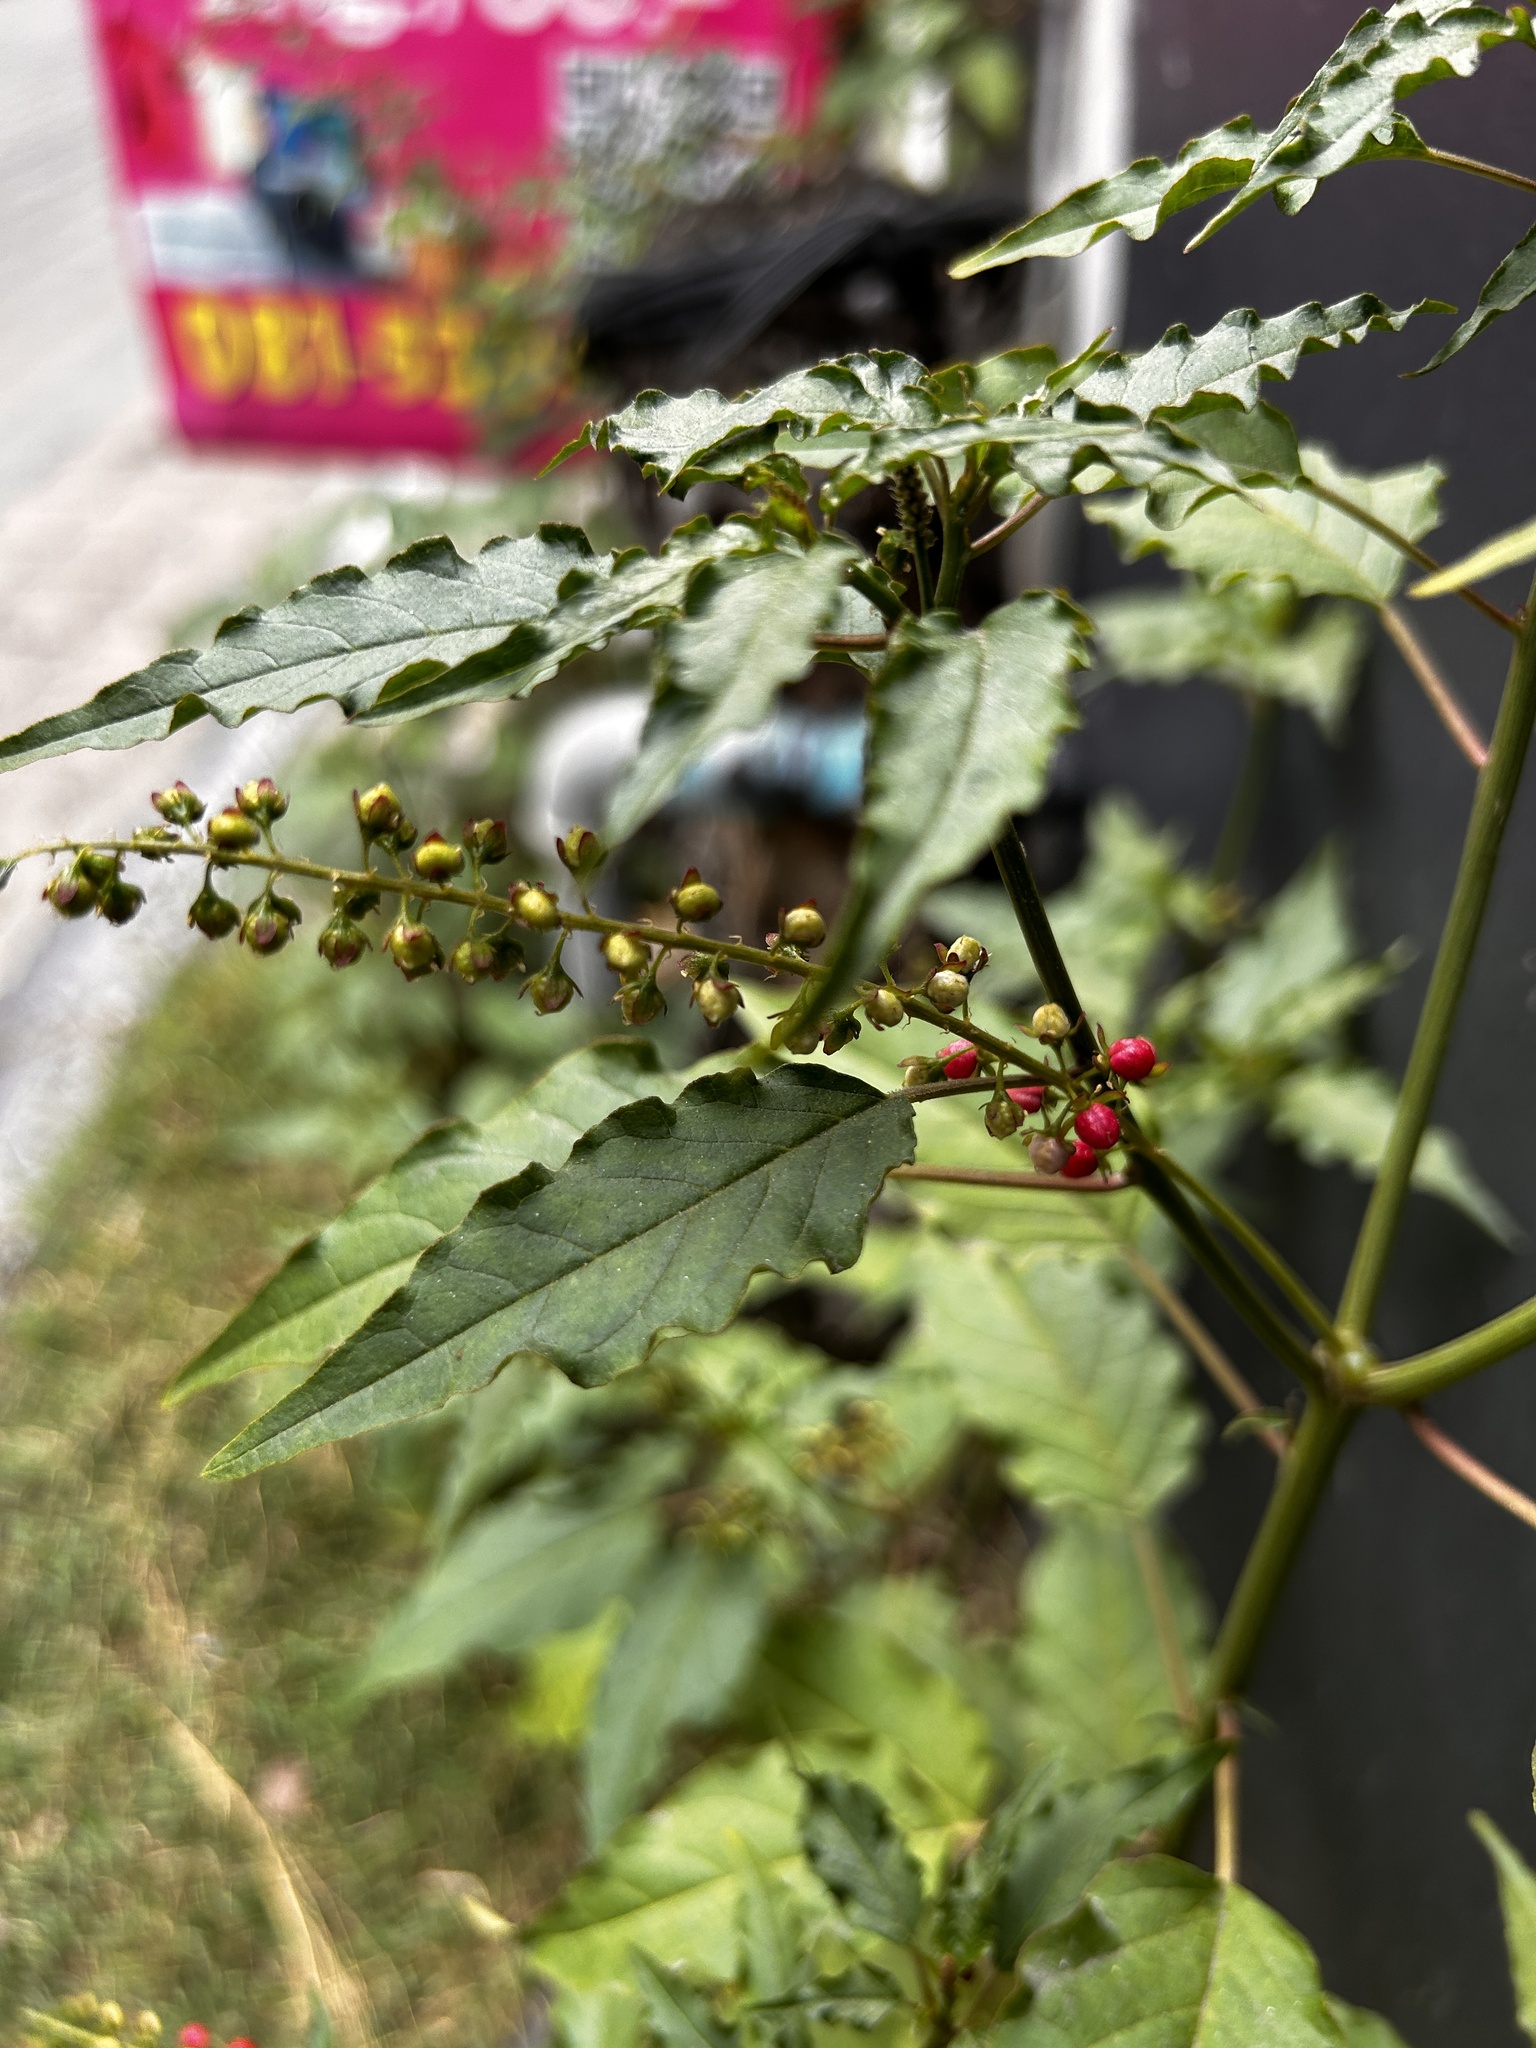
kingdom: Plantae
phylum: Tracheophyta
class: Magnoliopsida
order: Caryophyllales
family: Phytolaccaceae
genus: Rivina
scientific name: Rivina humilis
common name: Rougeplant
